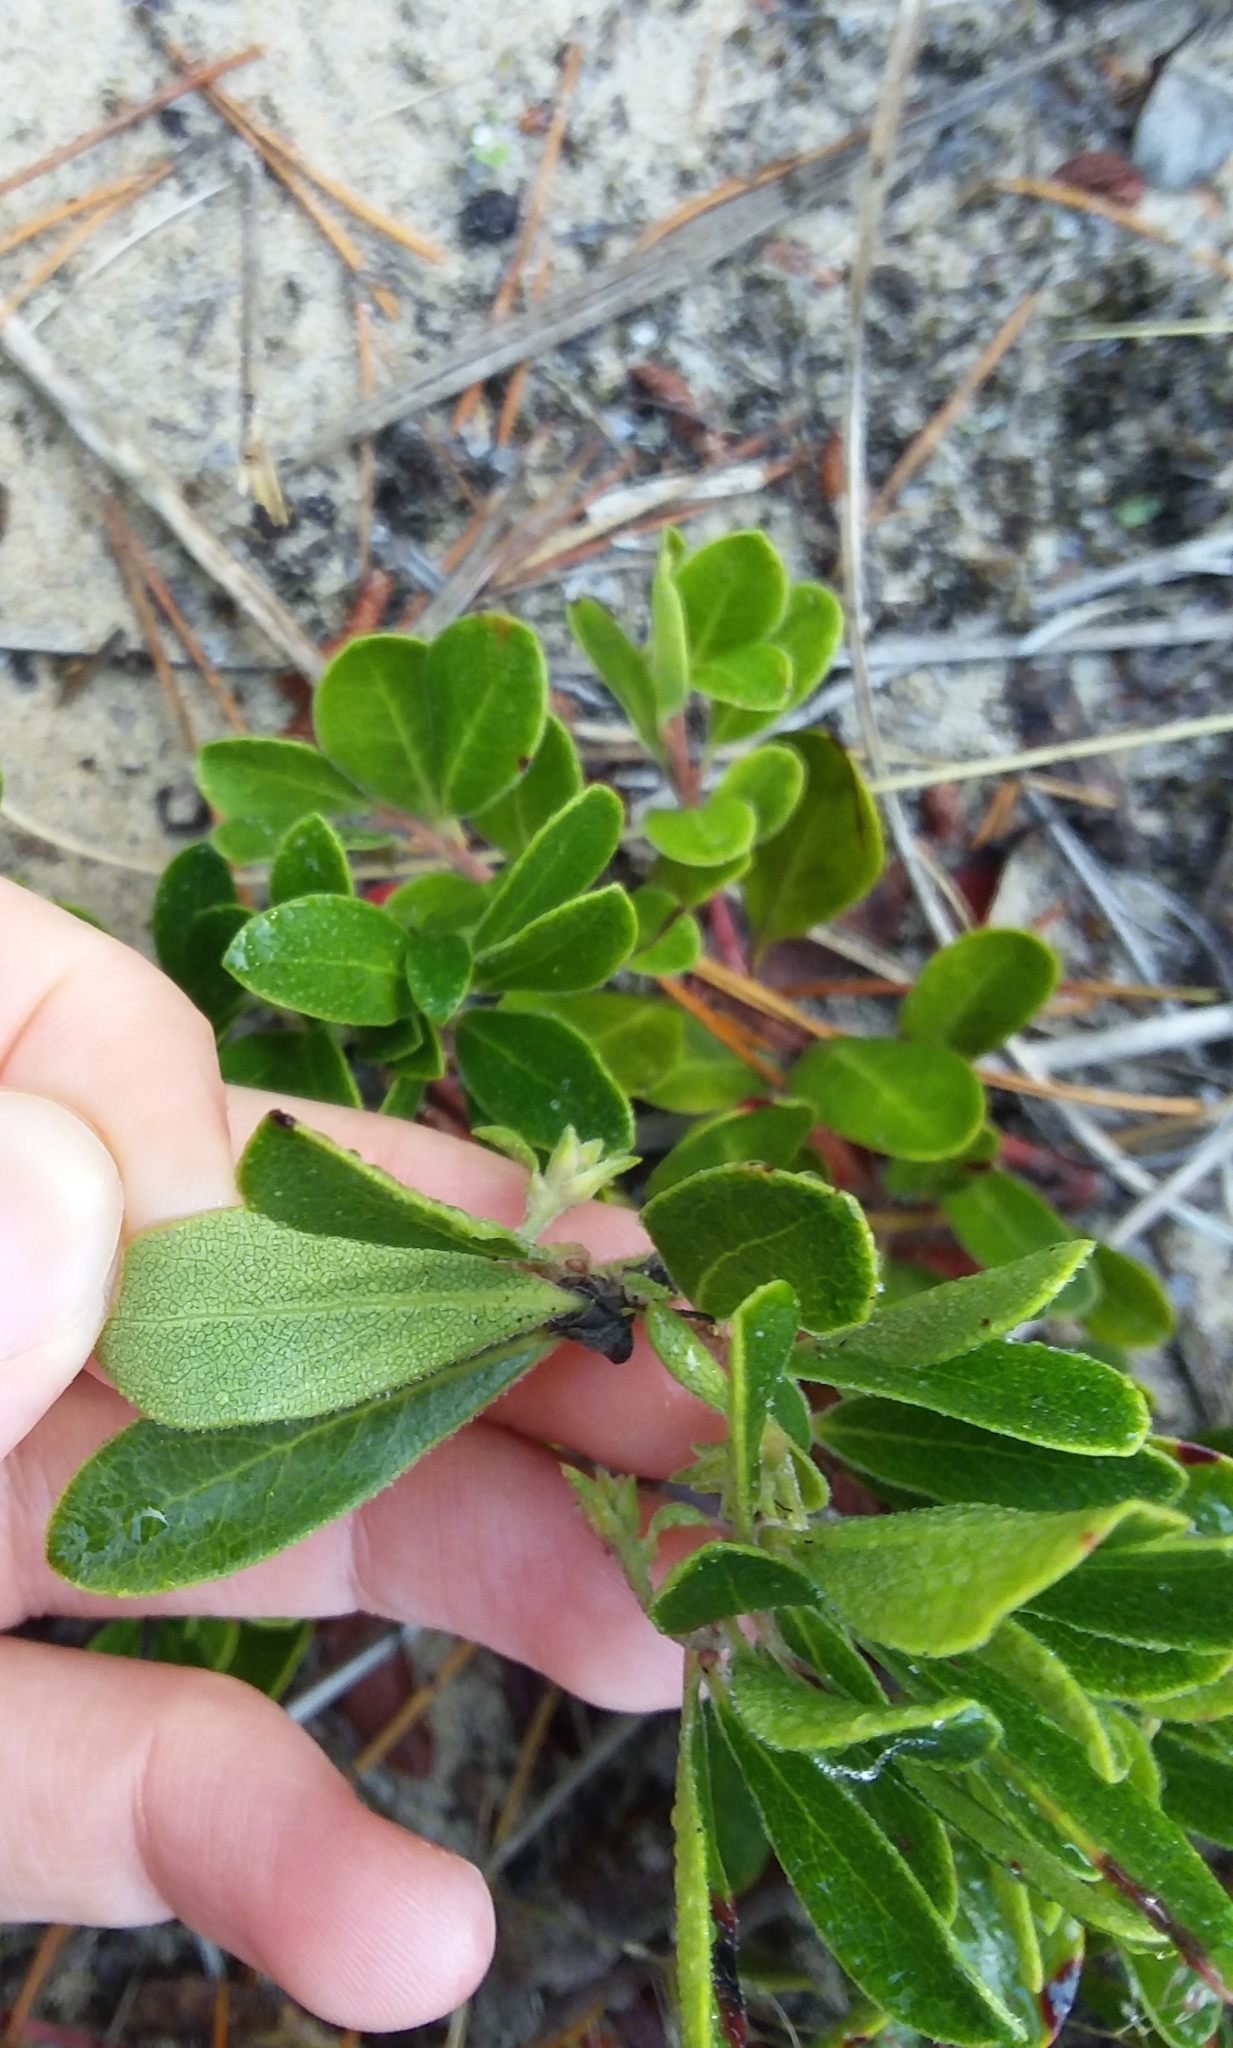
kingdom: Plantae
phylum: Tracheophyta
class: Magnoliopsida
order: Ericales
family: Ericaceae
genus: Arctostaphylos
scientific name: Arctostaphylos uva-ursi
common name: Bearberry
